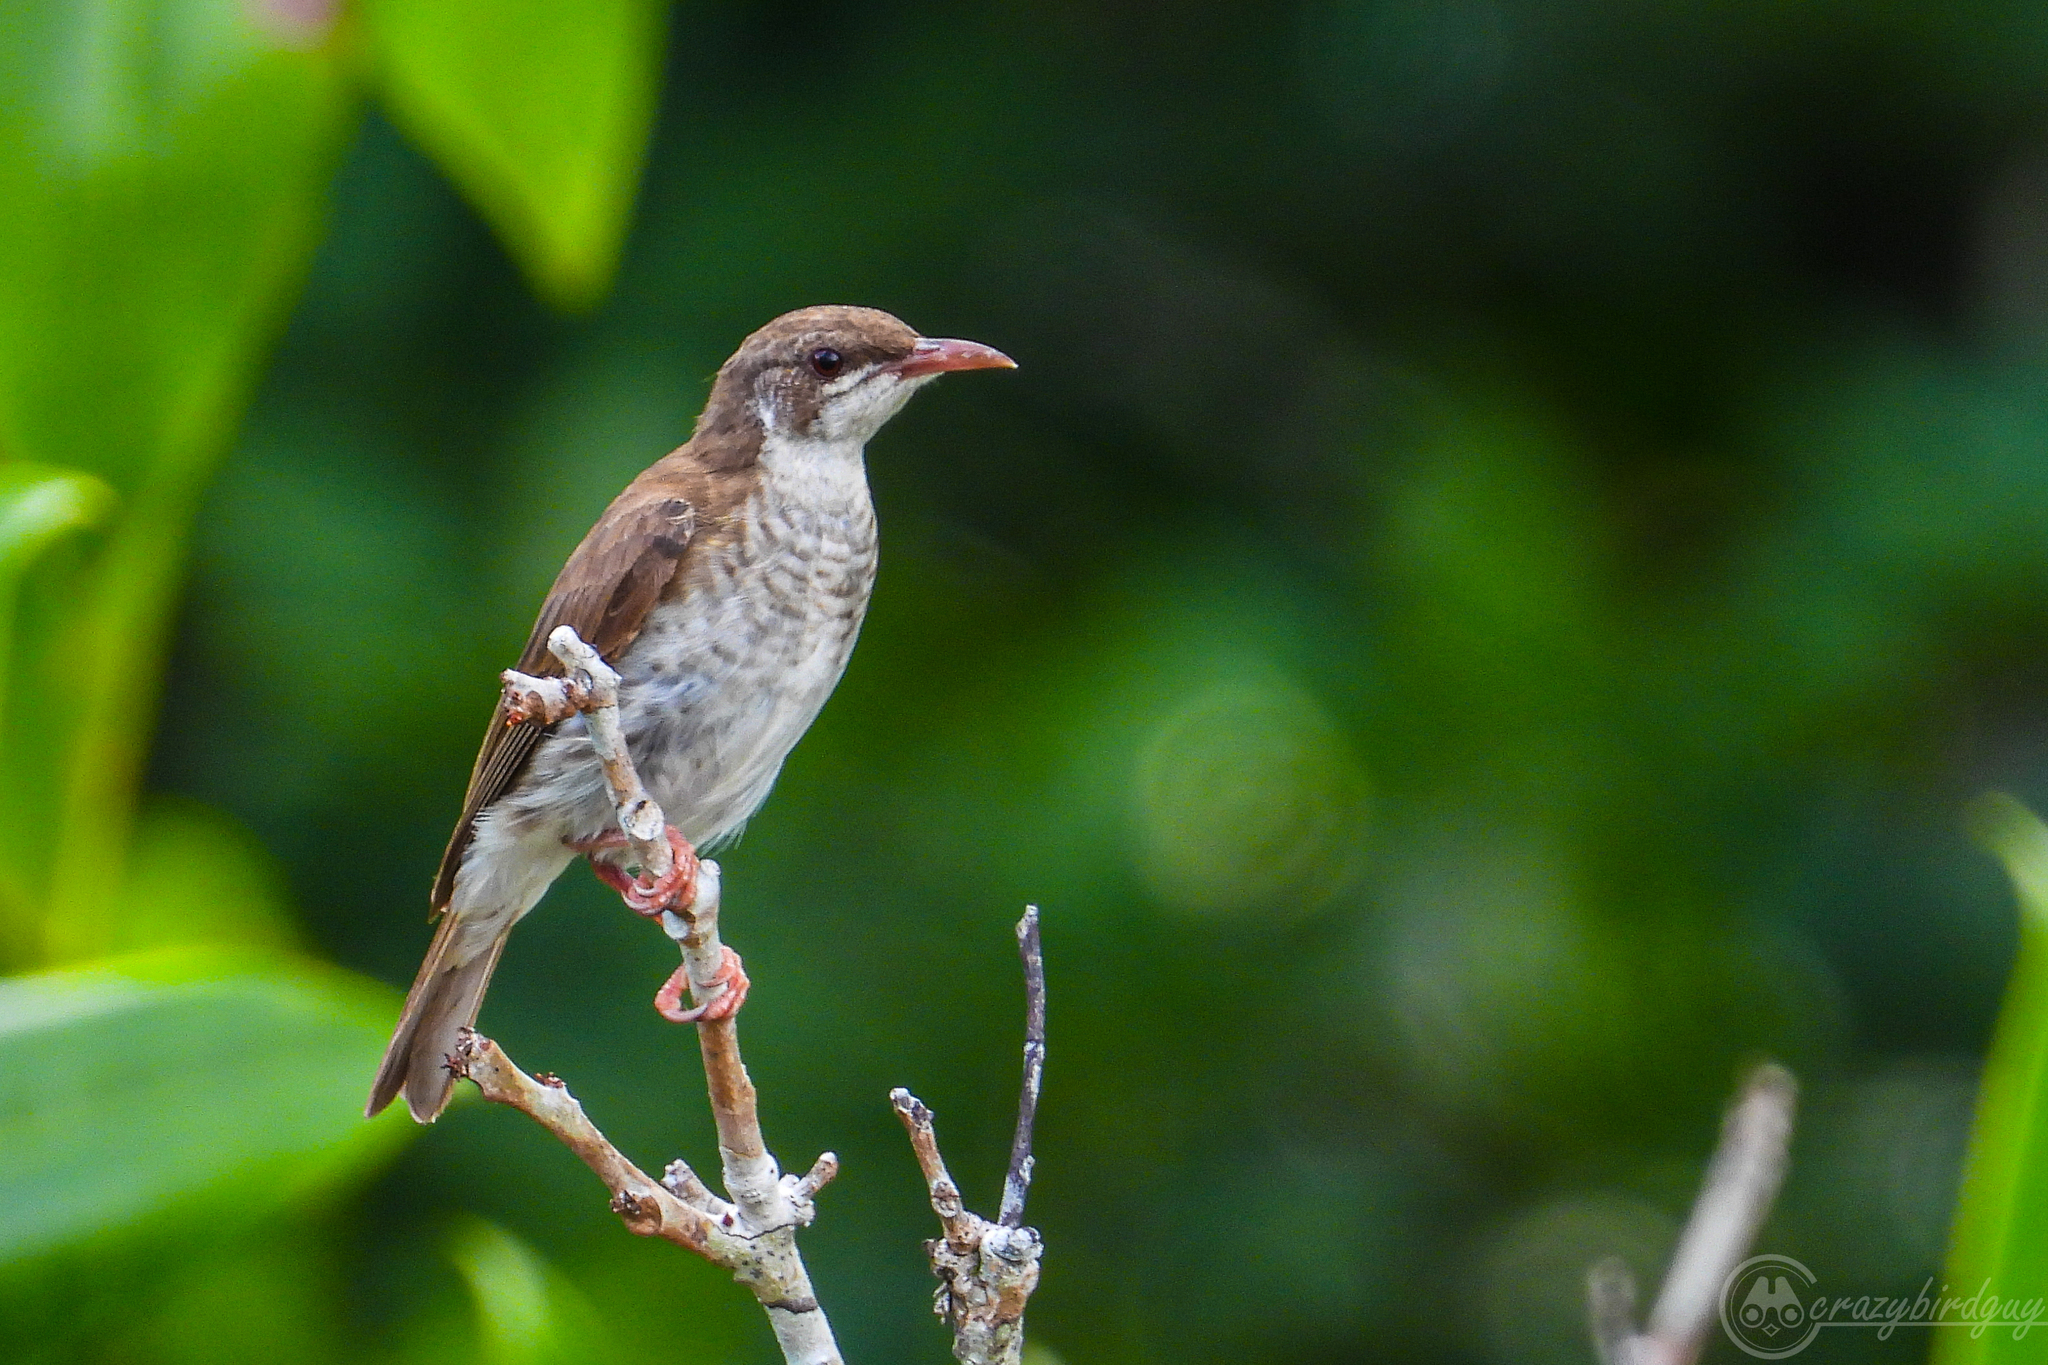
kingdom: Animalia
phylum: Chordata
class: Aves
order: Passeriformes
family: Meliphagidae
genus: Ramsayornis
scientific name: Ramsayornis modestus
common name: Brown-backed honeyeater
